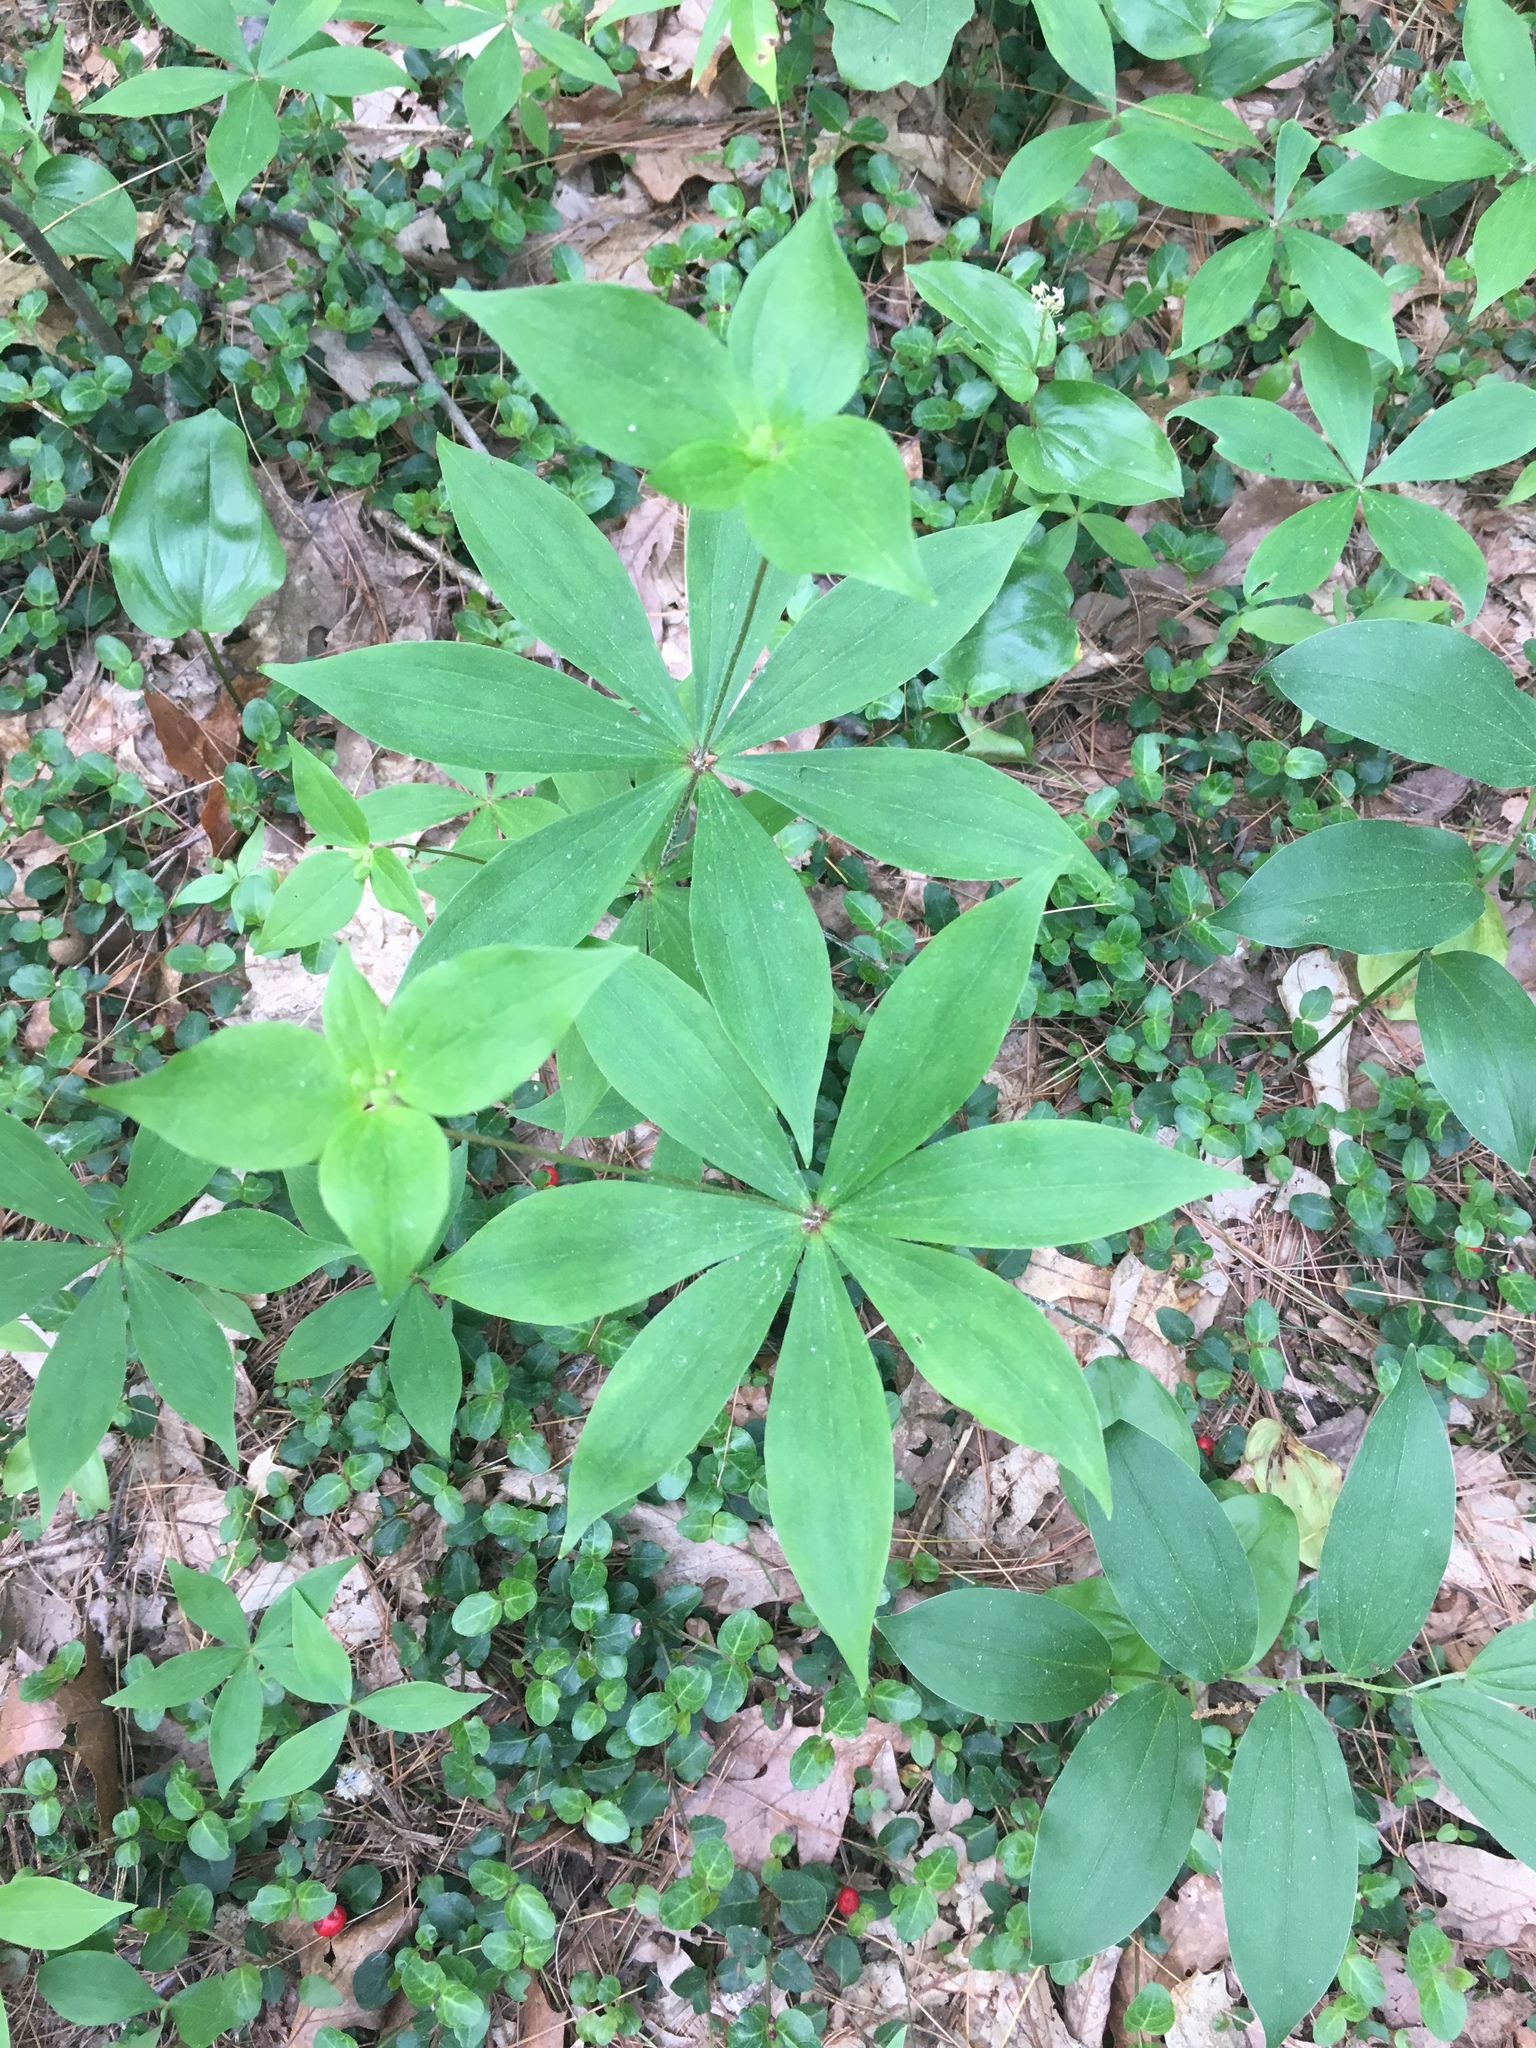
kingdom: Plantae
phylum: Tracheophyta
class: Liliopsida
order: Liliales
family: Liliaceae
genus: Medeola
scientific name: Medeola virginiana
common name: Indian cucumber-root
